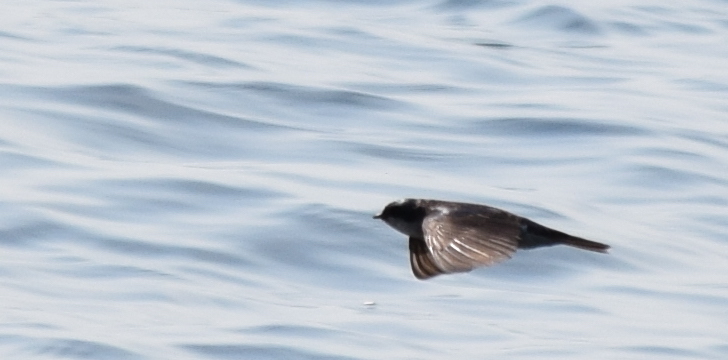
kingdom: Animalia
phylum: Chordata
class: Aves
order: Passeriformes
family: Hirundinidae
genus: Tachycineta
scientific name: Tachycineta bicolor
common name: Tree swallow
